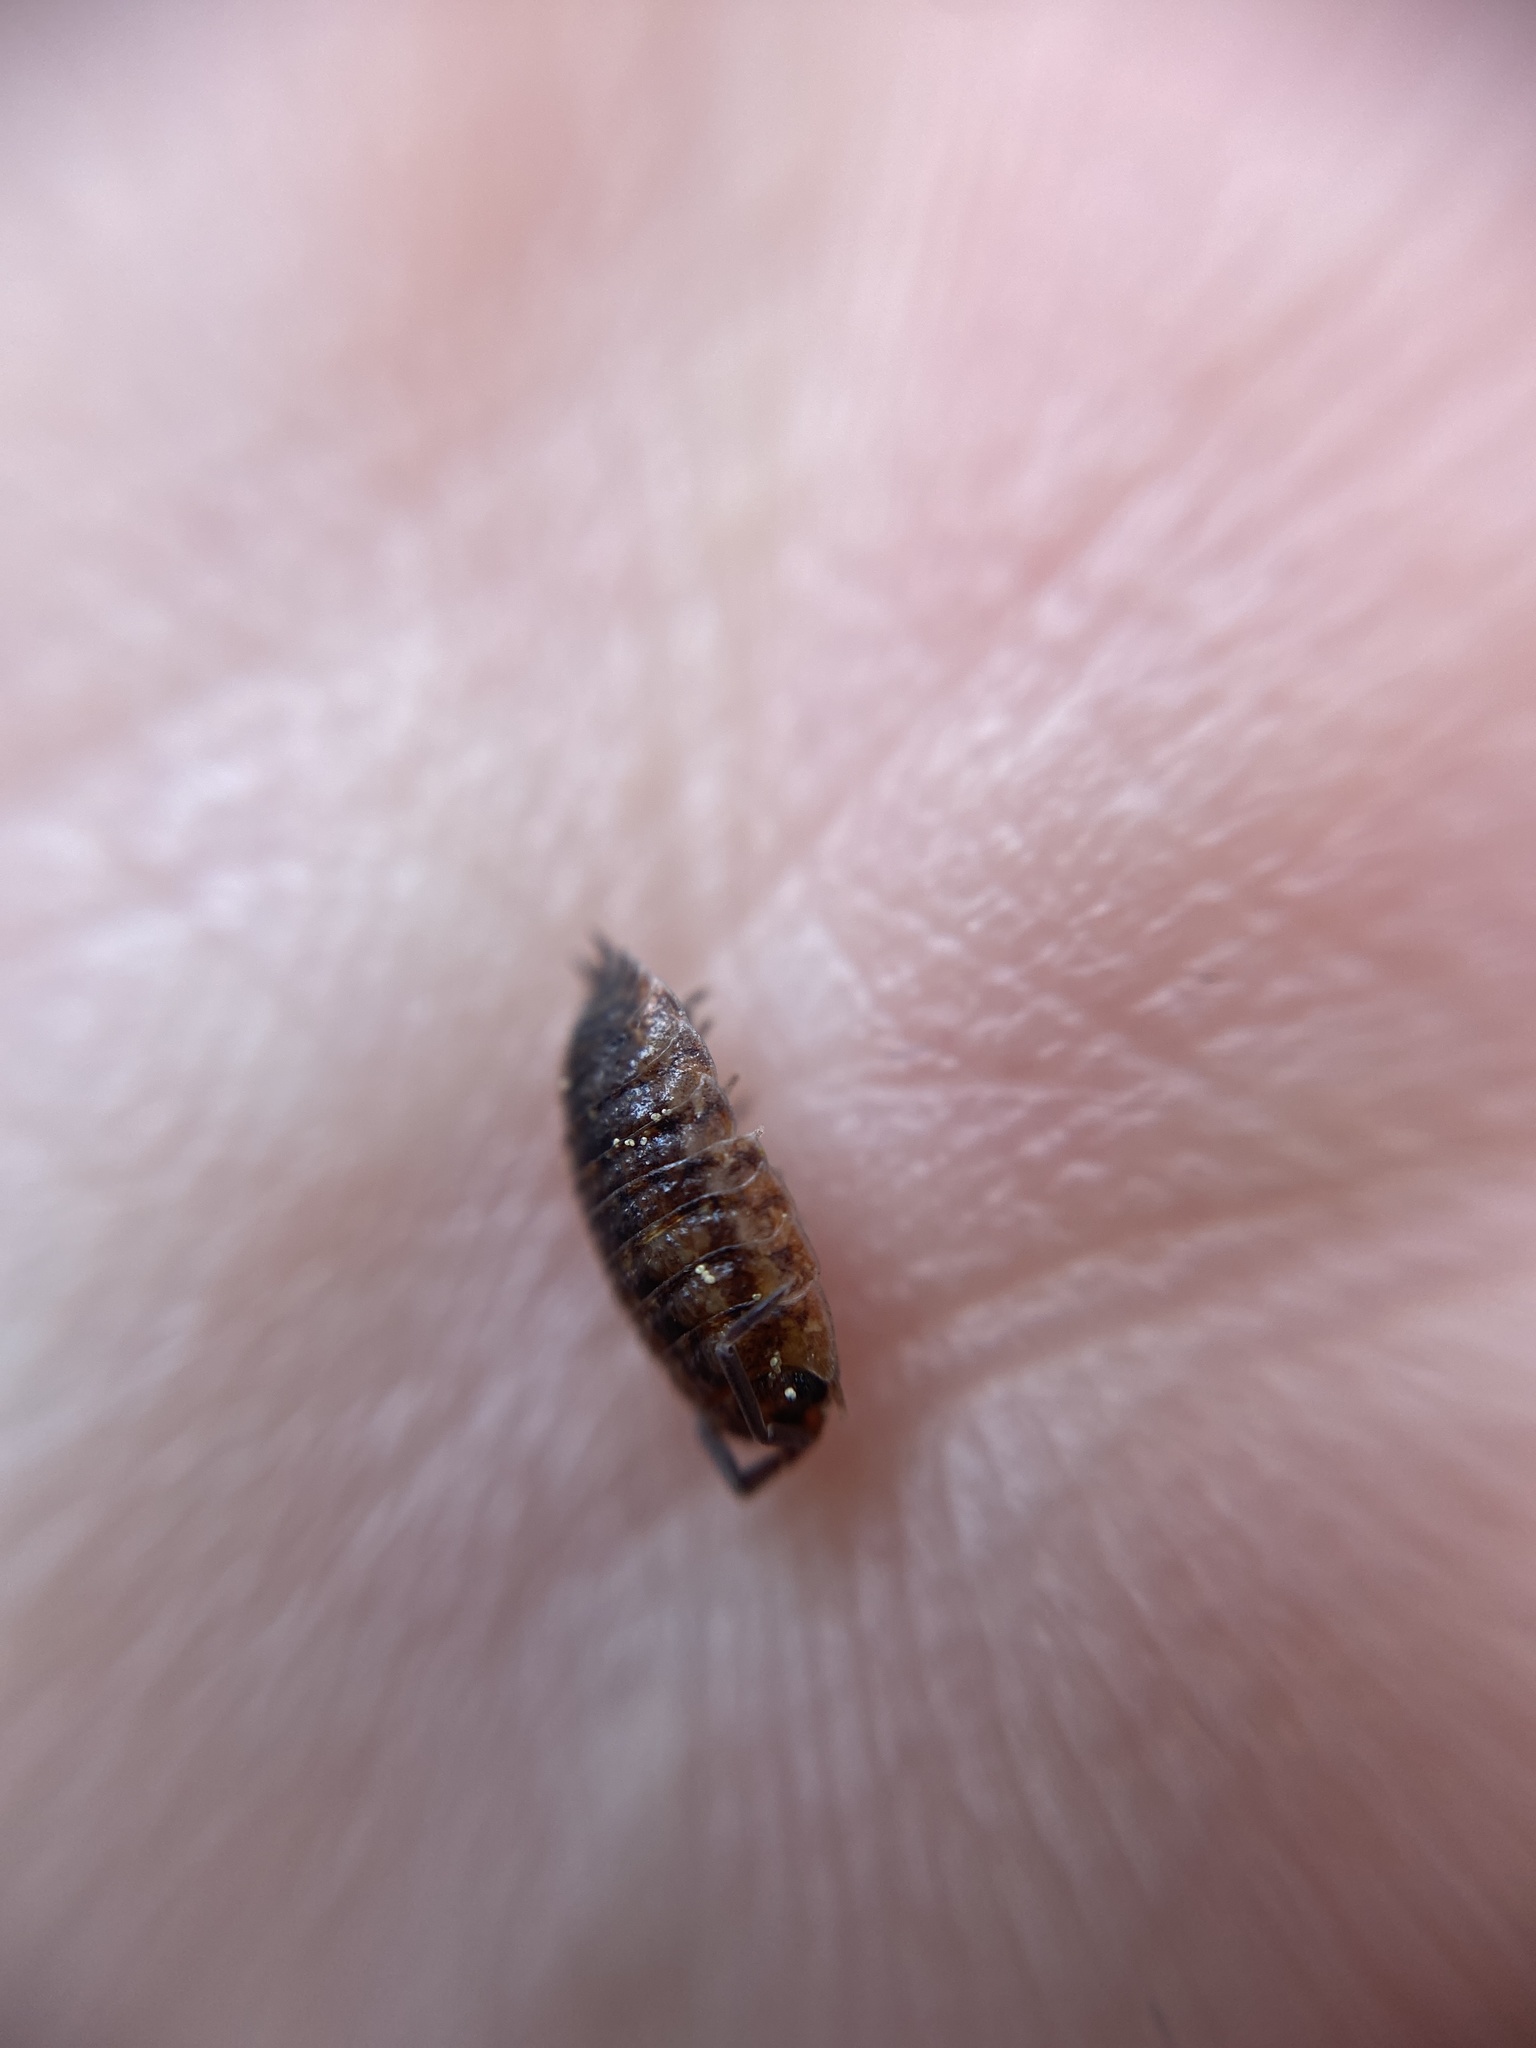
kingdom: Animalia
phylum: Arthropoda
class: Malacostraca
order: Isopoda
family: Porcellionidae
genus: Porcellio
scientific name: Porcellio scaber
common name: Common rough woodlouse
